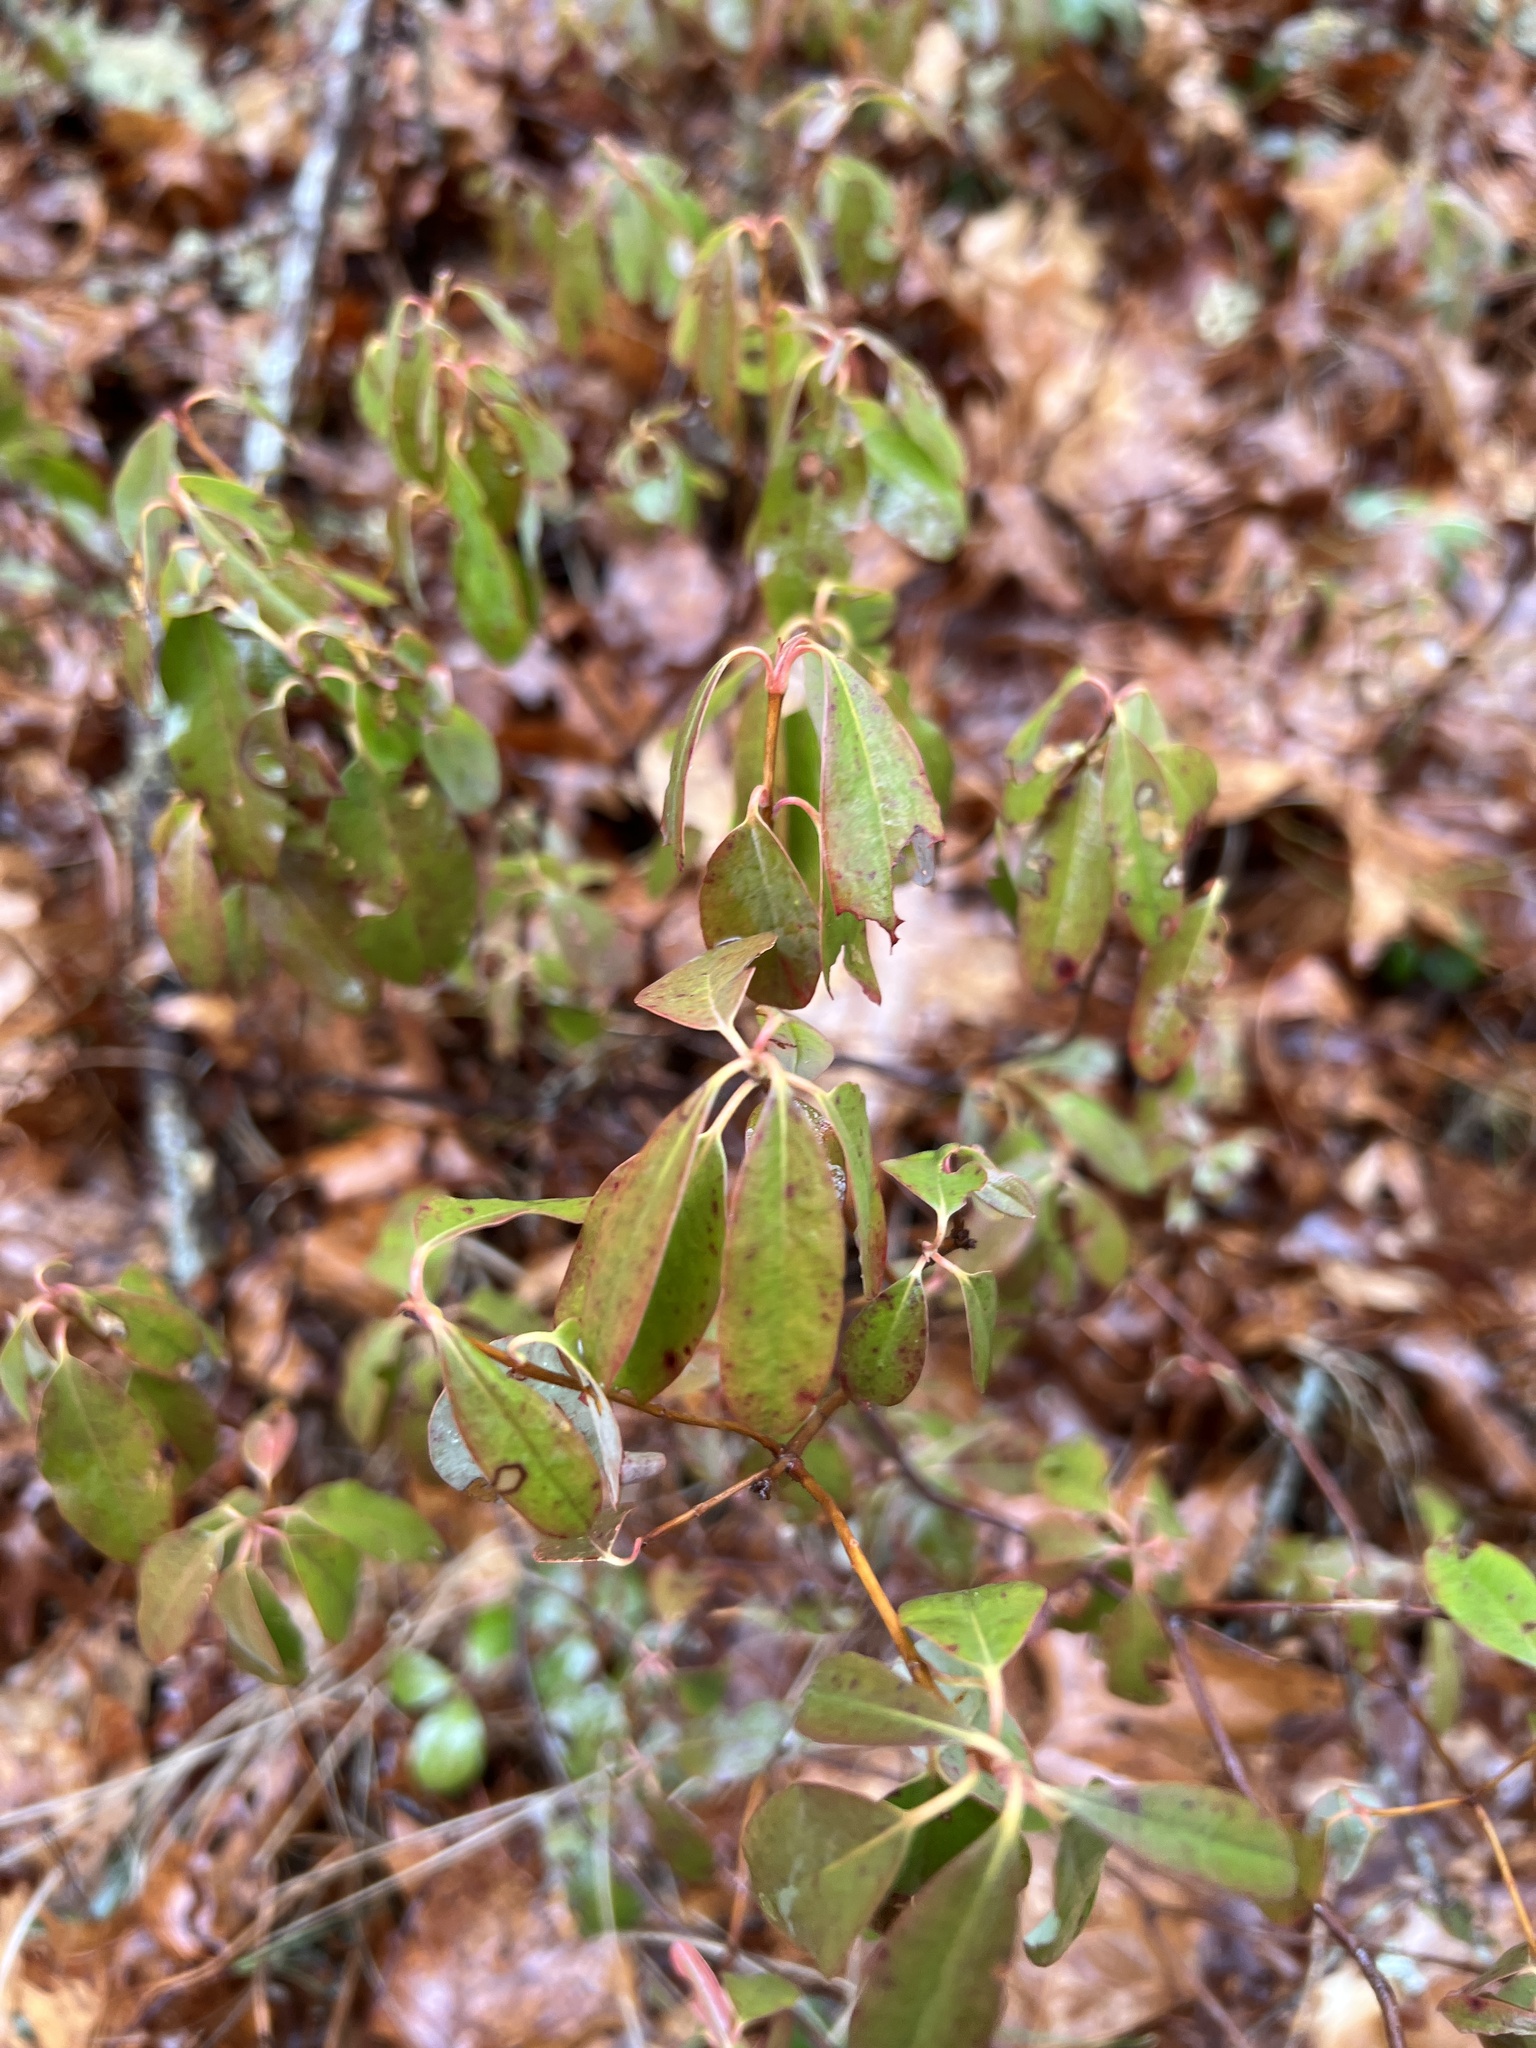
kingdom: Plantae
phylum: Tracheophyta
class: Magnoliopsida
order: Ericales
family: Ericaceae
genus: Kalmia
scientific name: Kalmia angustifolia
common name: Sheep-laurel
